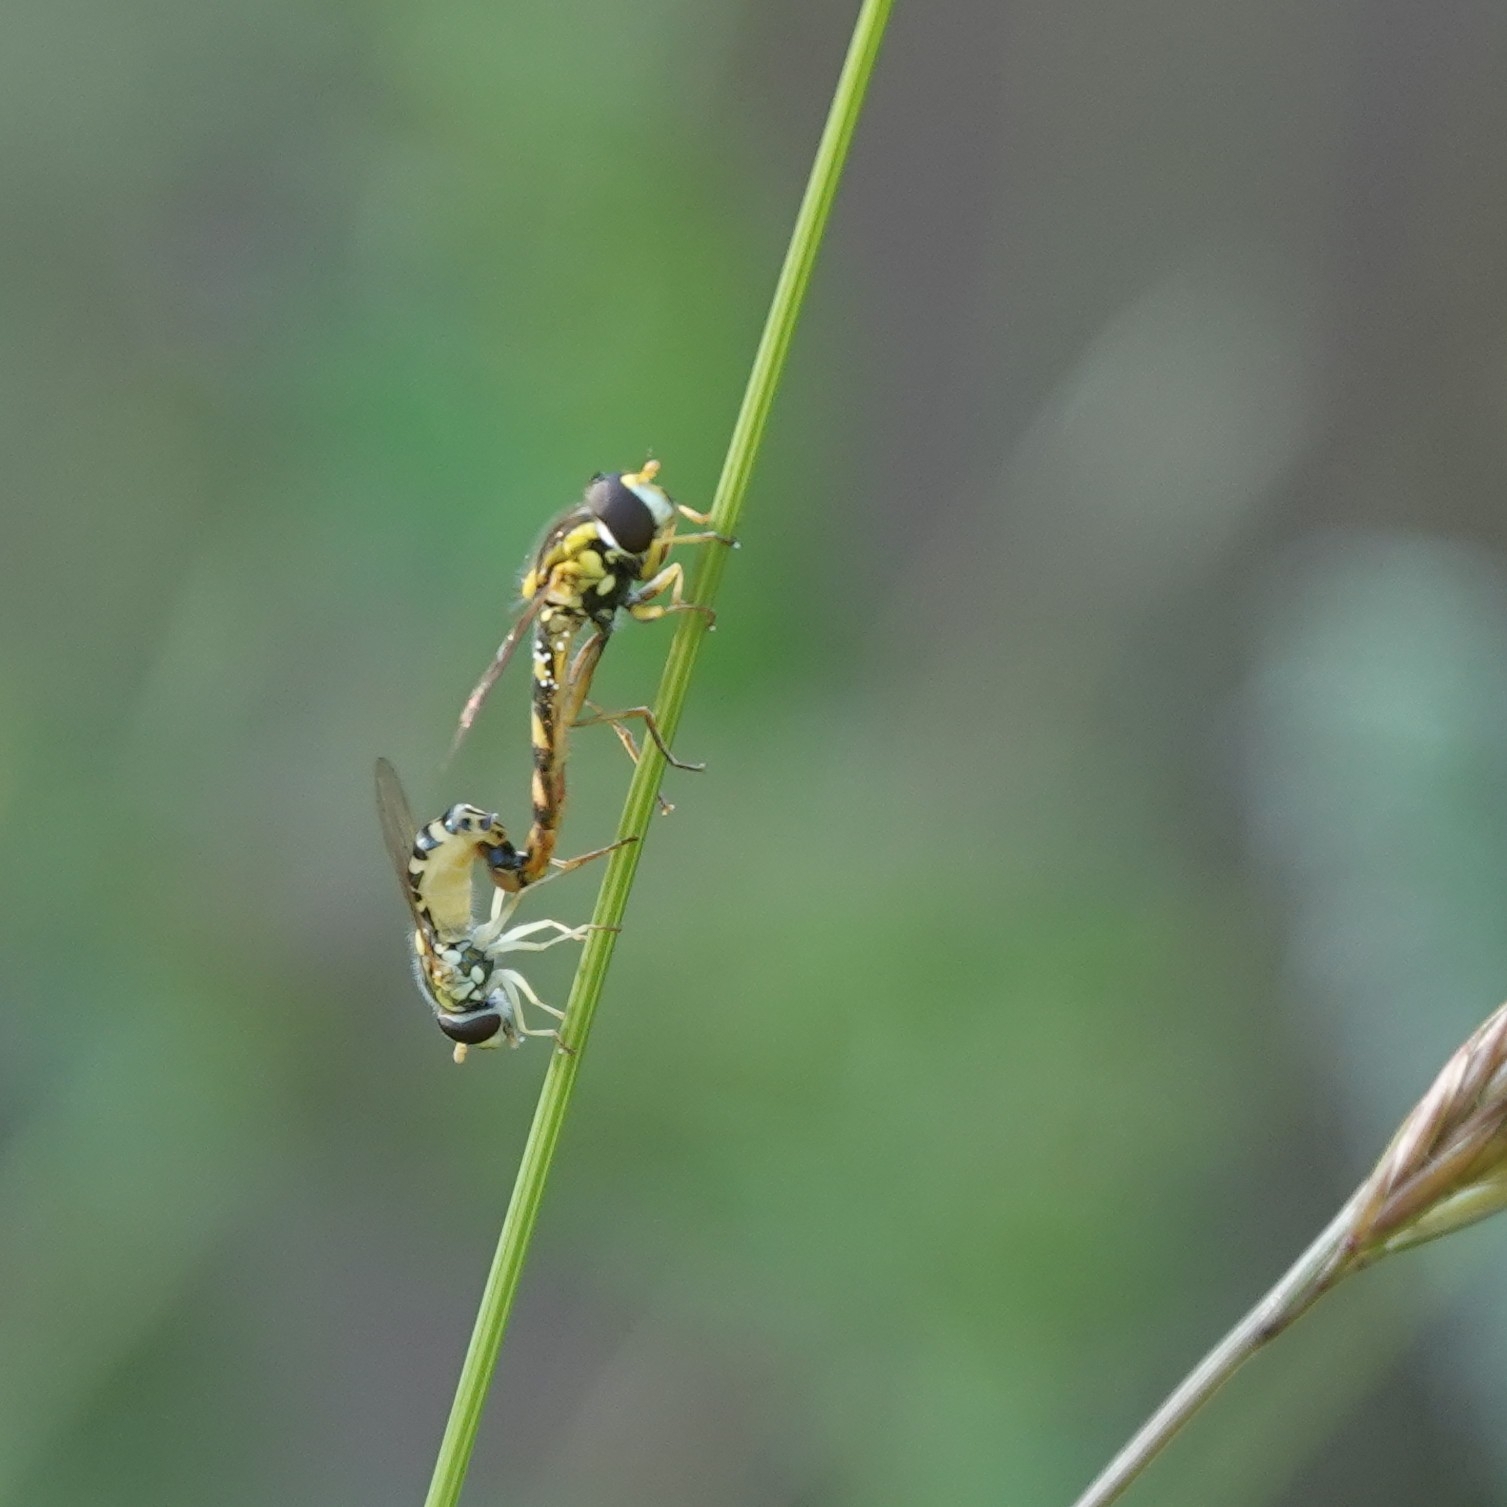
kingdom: Animalia
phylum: Arthropoda
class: Insecta
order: Diptera
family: Syrphidae
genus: Sphaerophoria
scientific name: Sphaerophoria scripta
